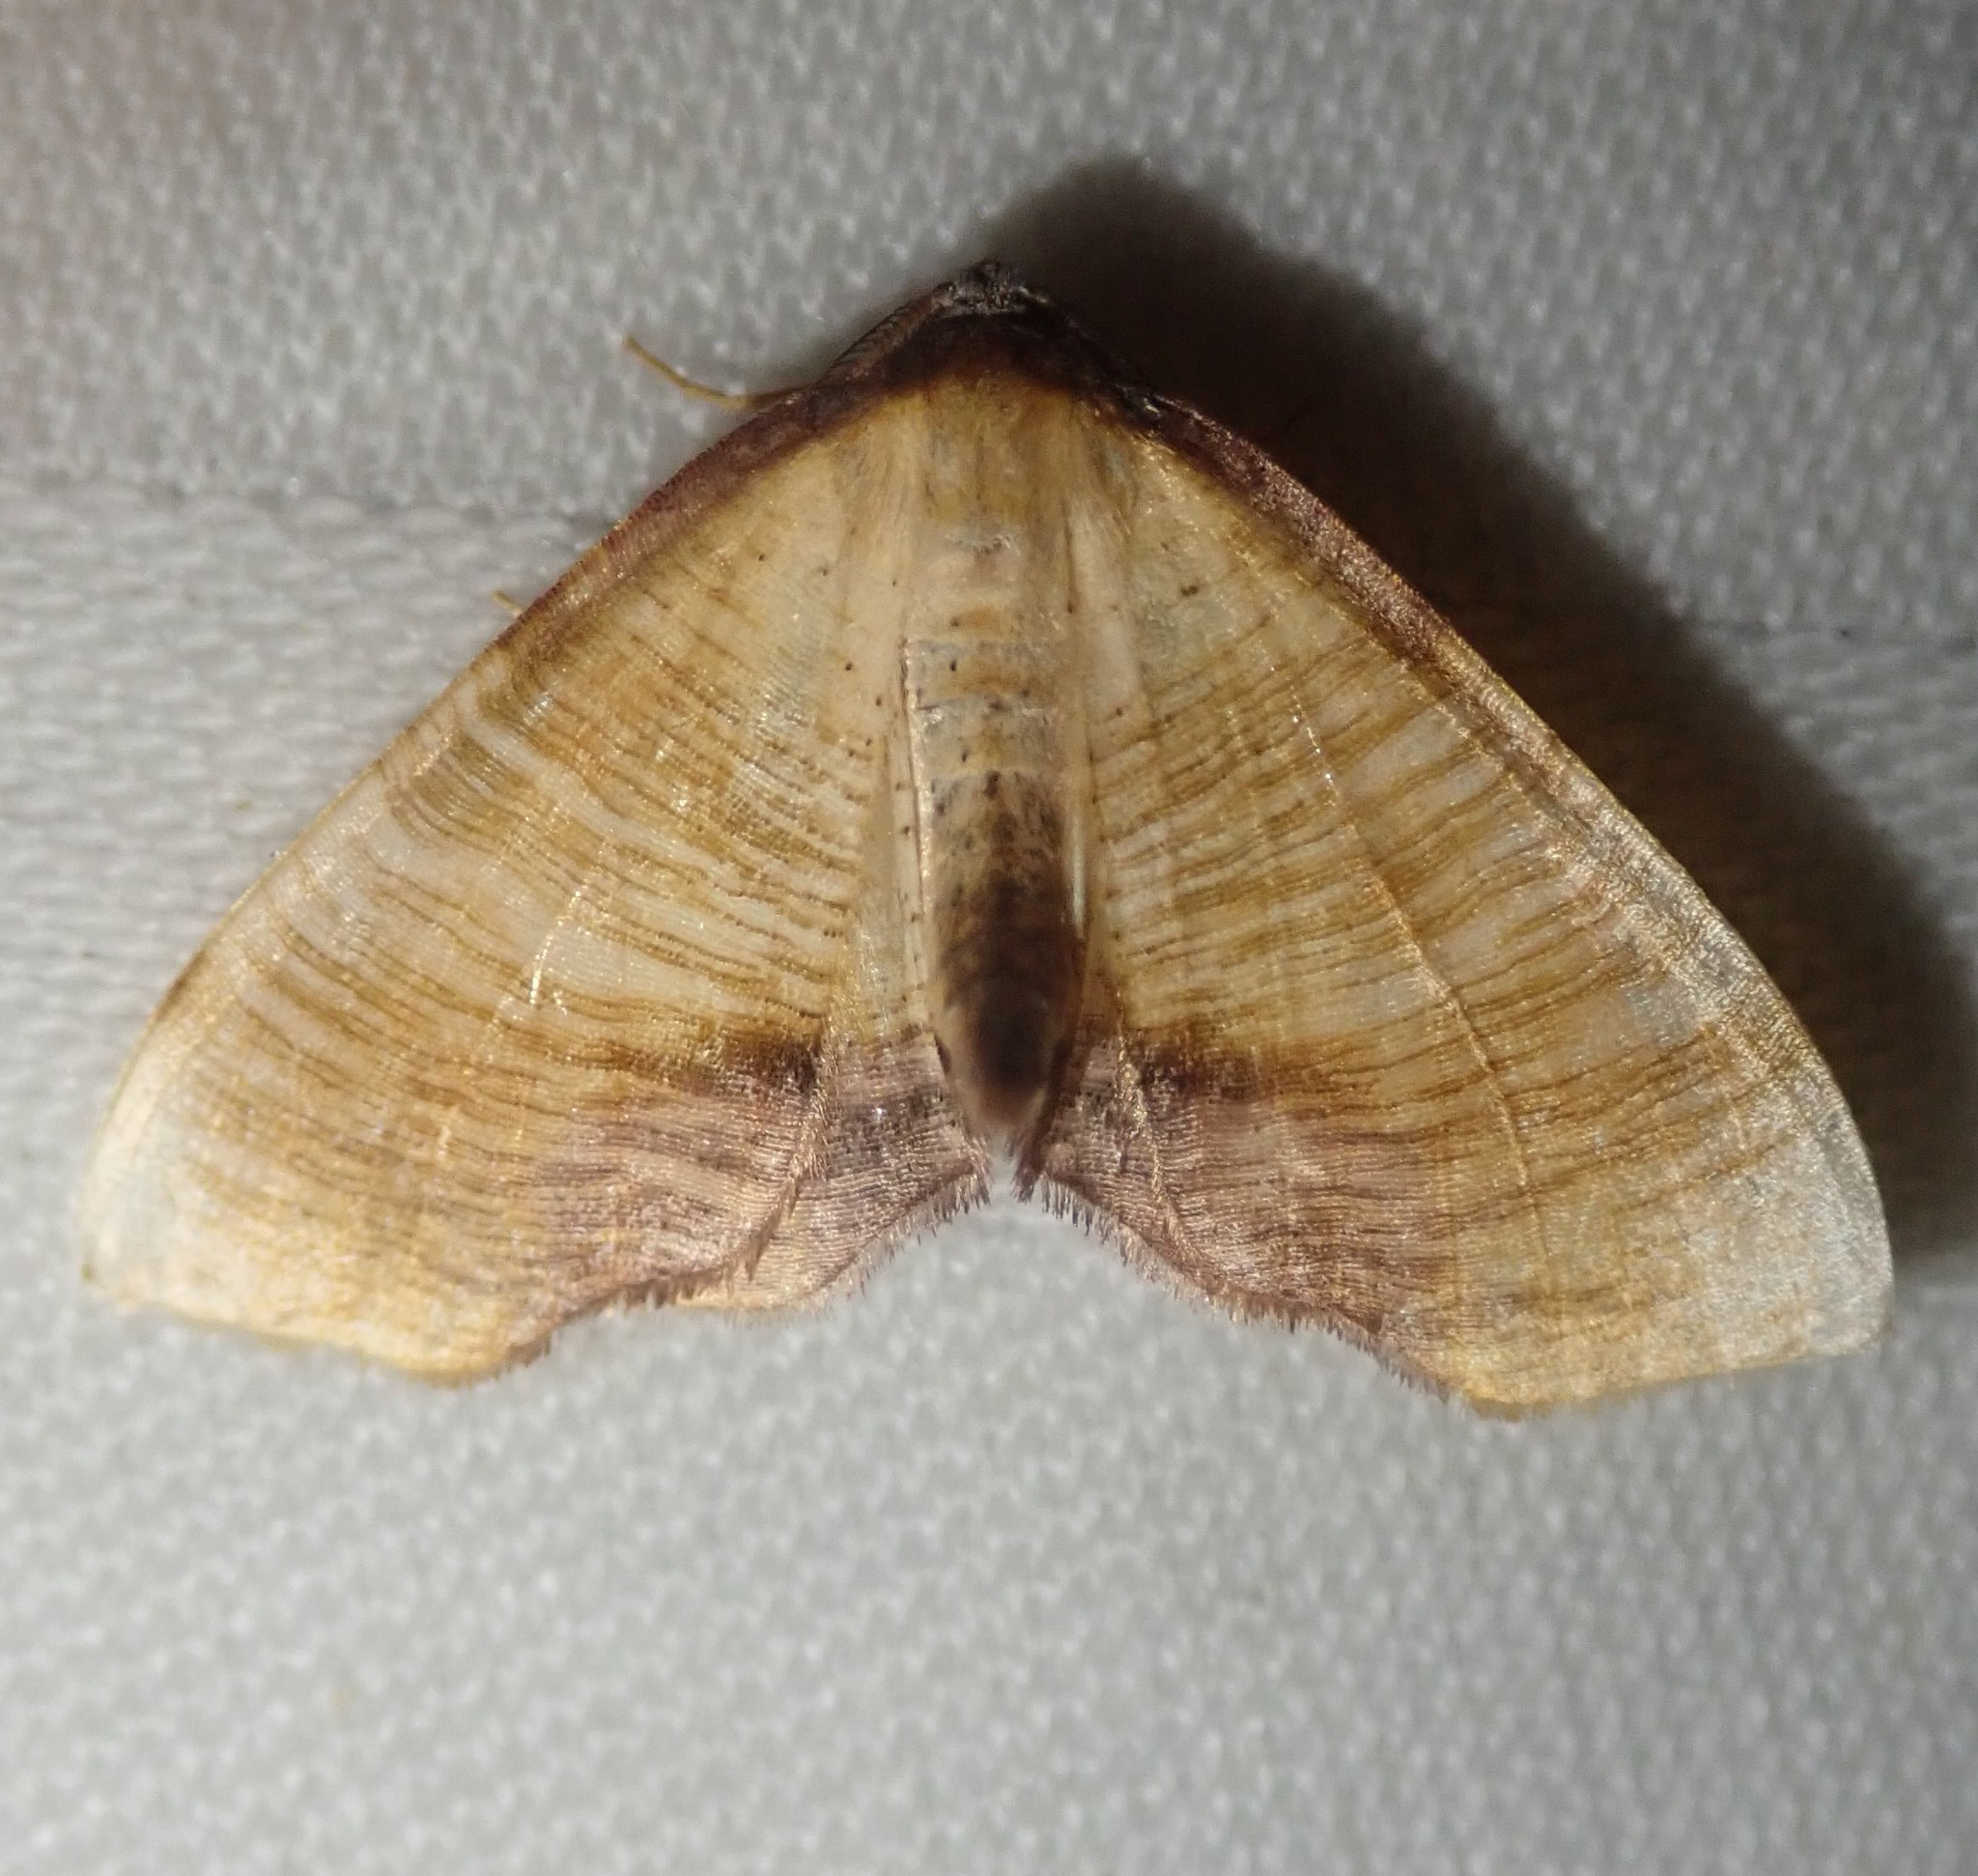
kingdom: Animalia
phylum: Arthropoda
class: Insecta
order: Lepidoptera
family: Geometridae
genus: Plagodis
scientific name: Plagodis dolabraria
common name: Scorched wing
